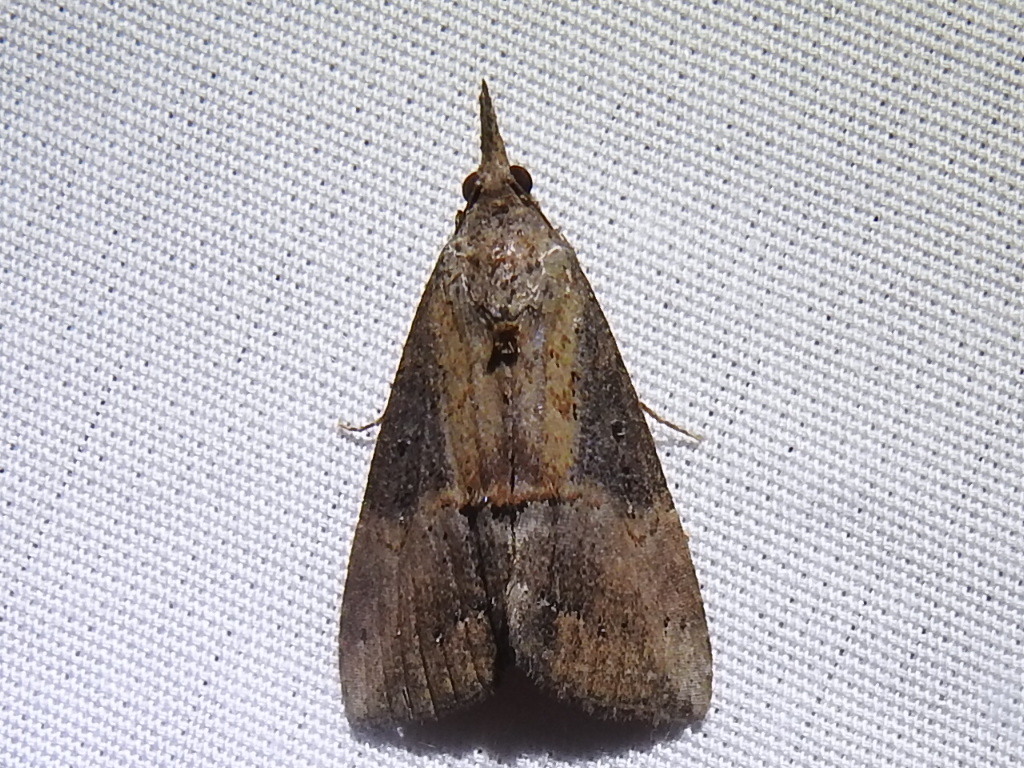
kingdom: Animalia
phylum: Arthropoda
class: Insecta
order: Lepidoptera
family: Erebidae
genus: Hypena
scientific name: Hypena scabra
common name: Green cloverworm
